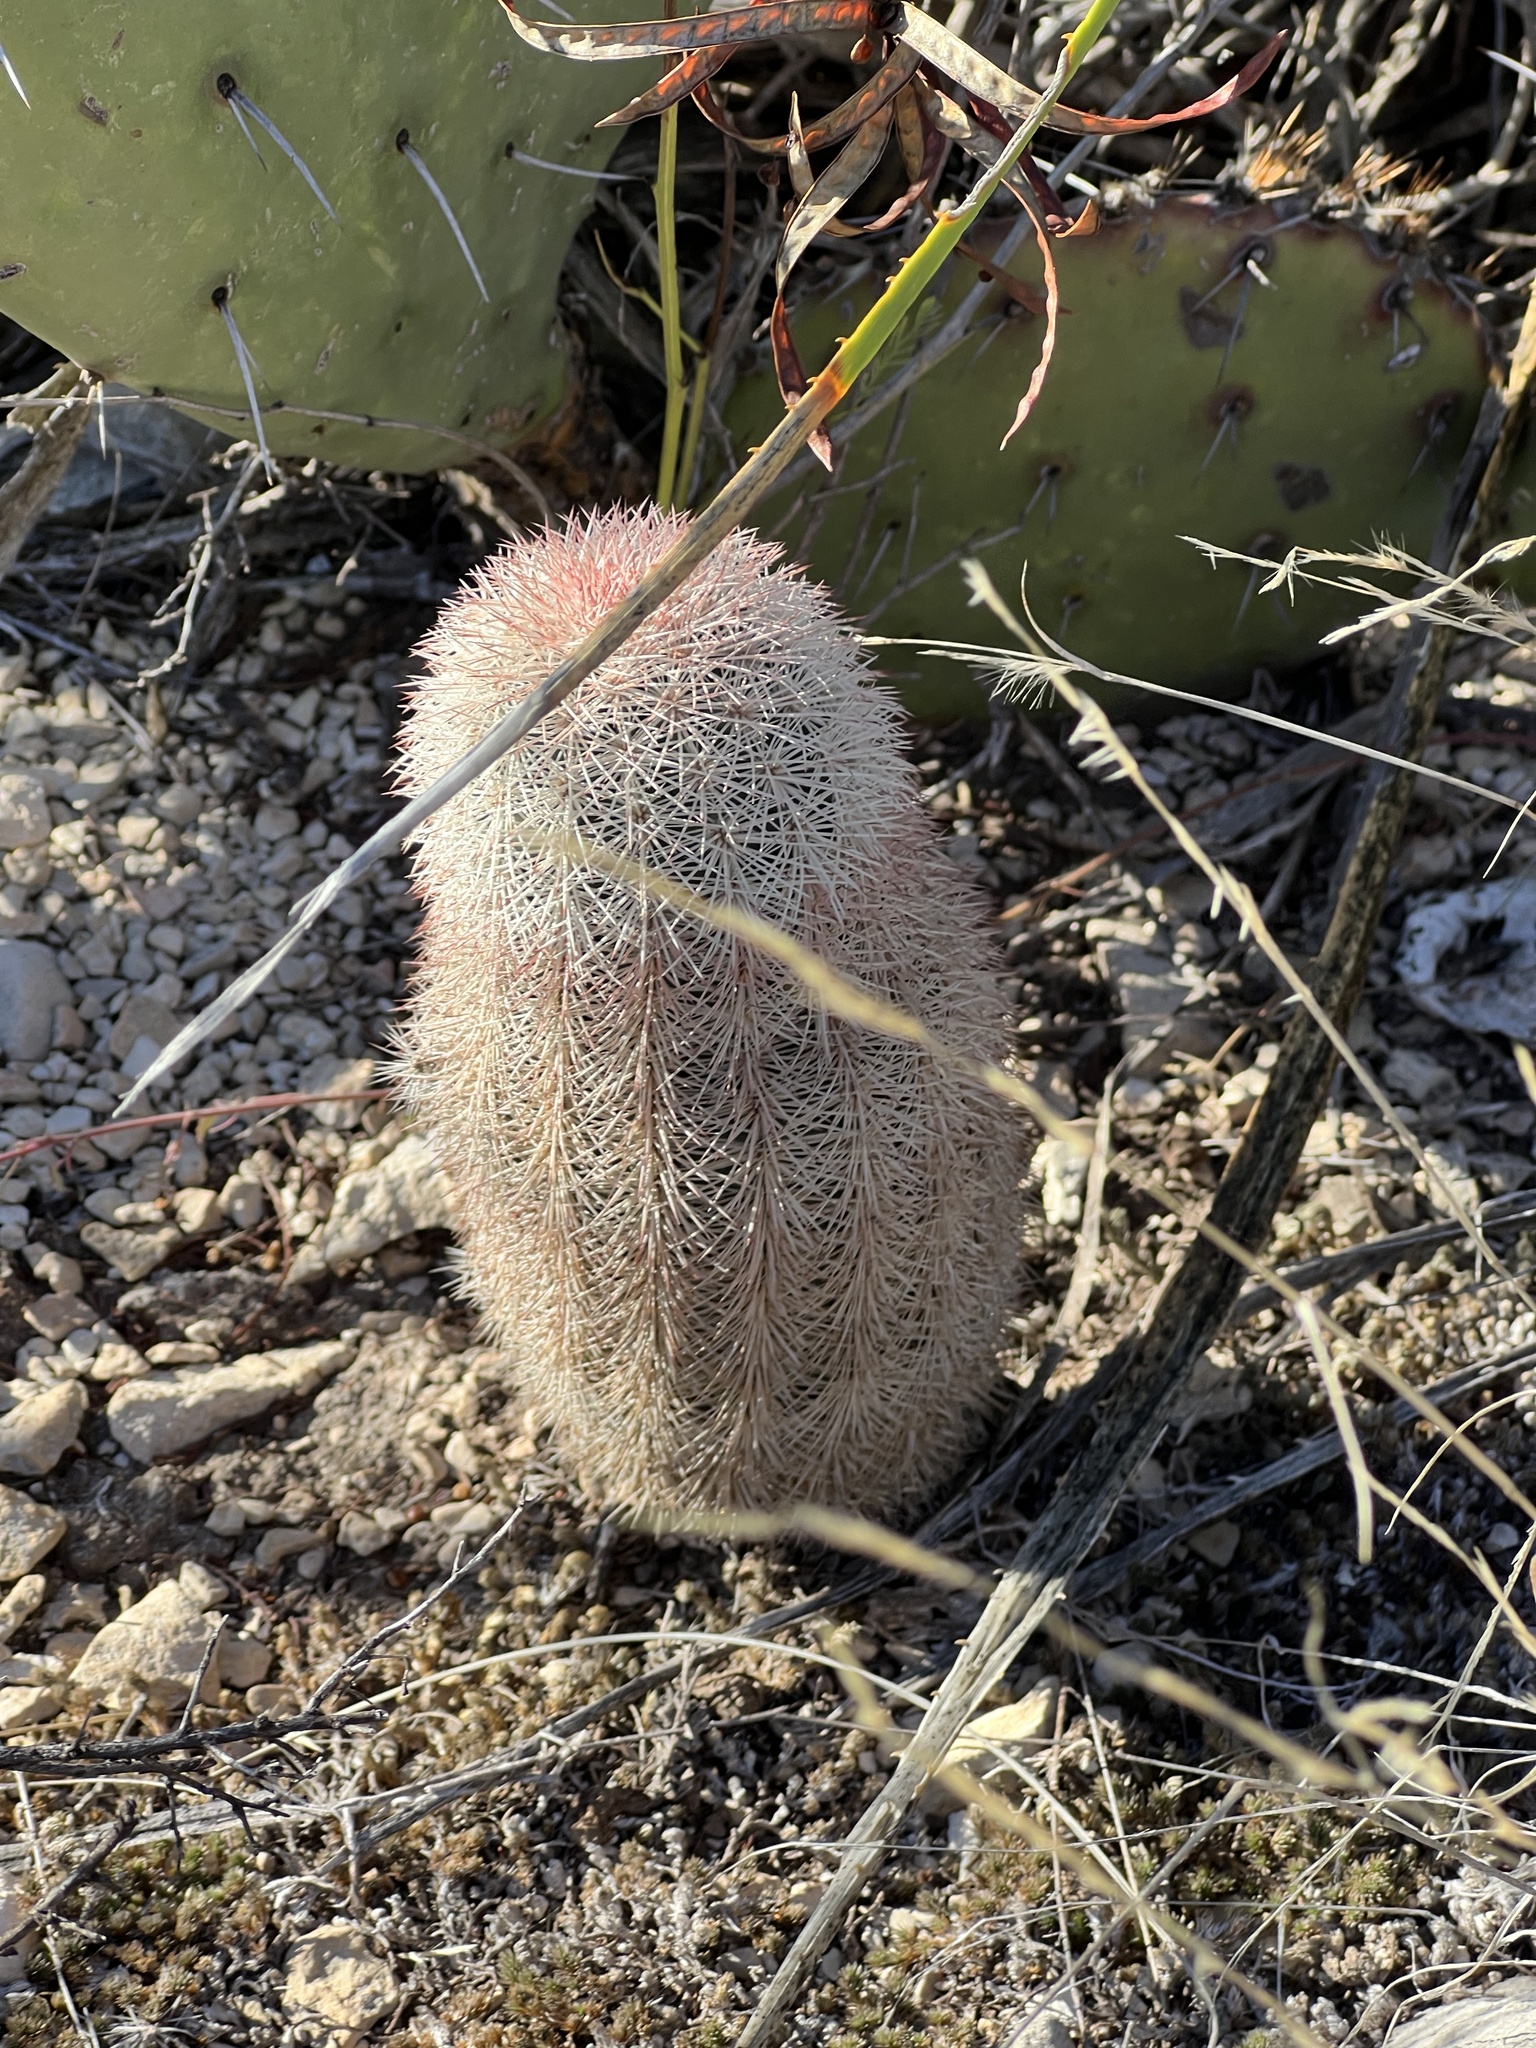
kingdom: Plantae
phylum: Tracheophyta
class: Magnoliopsida
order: Caryophyllales
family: Cactaceae
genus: Echinocereus
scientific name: Echinocereus dasyacanthus
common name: Spiny hedgehog cactus
